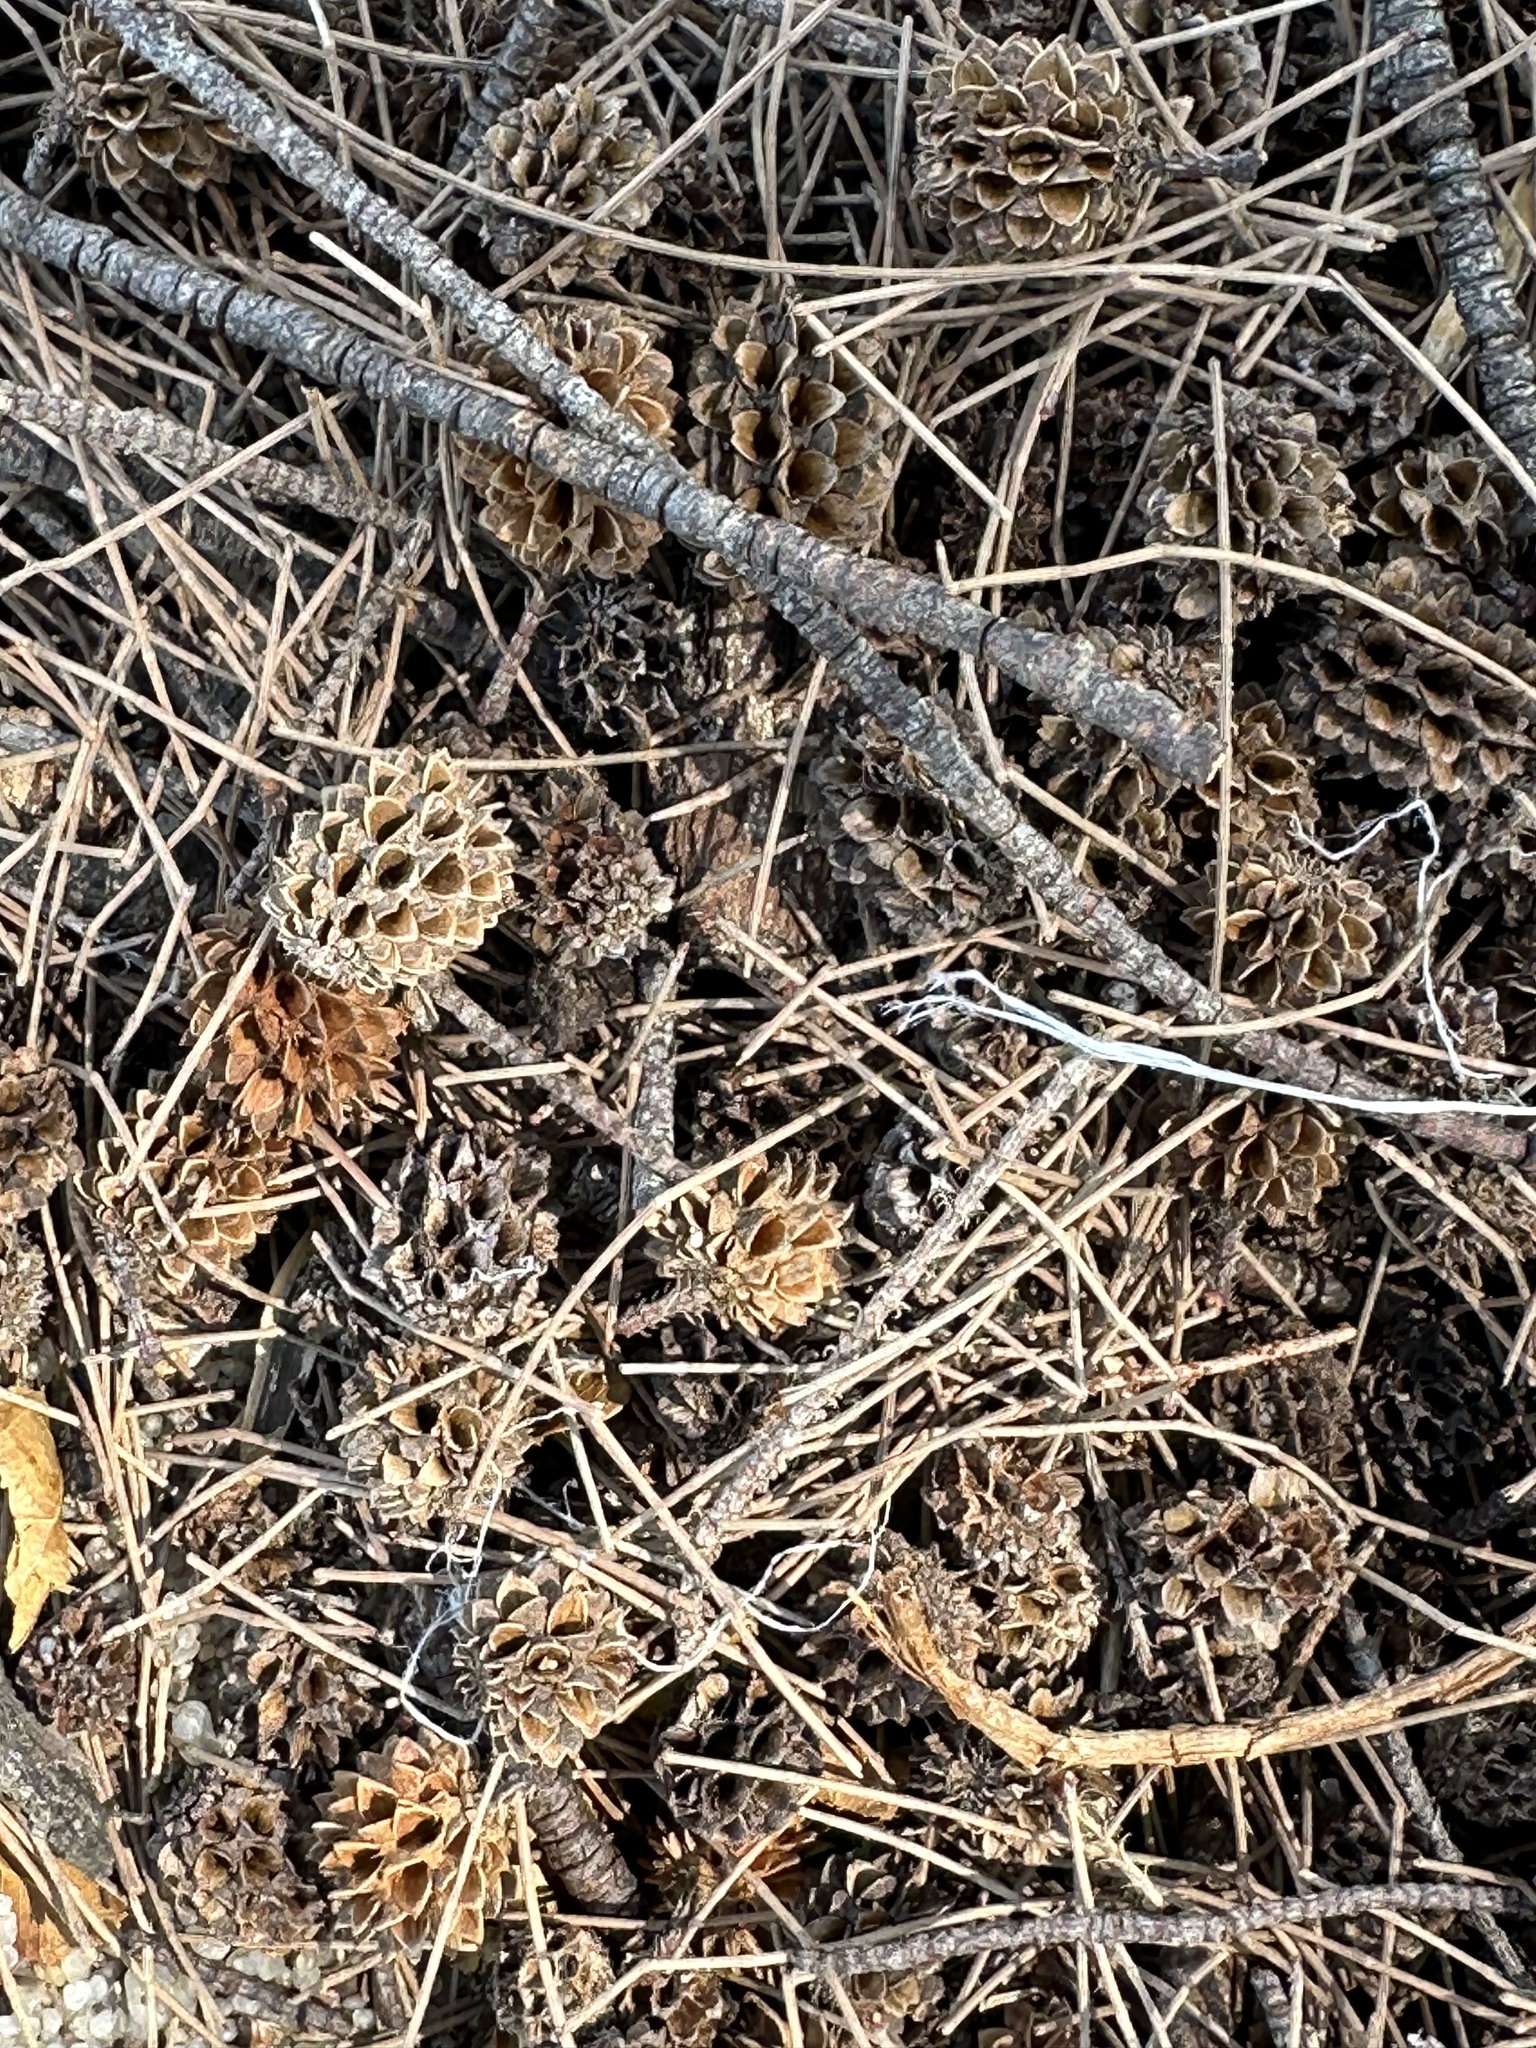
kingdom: Plantae
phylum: Tracheophyta
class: Magnoliopsida
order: Fagales
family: Casuarinaceae
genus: Casuarina
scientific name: Casuarina equisetifolia
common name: Beach sheoak
